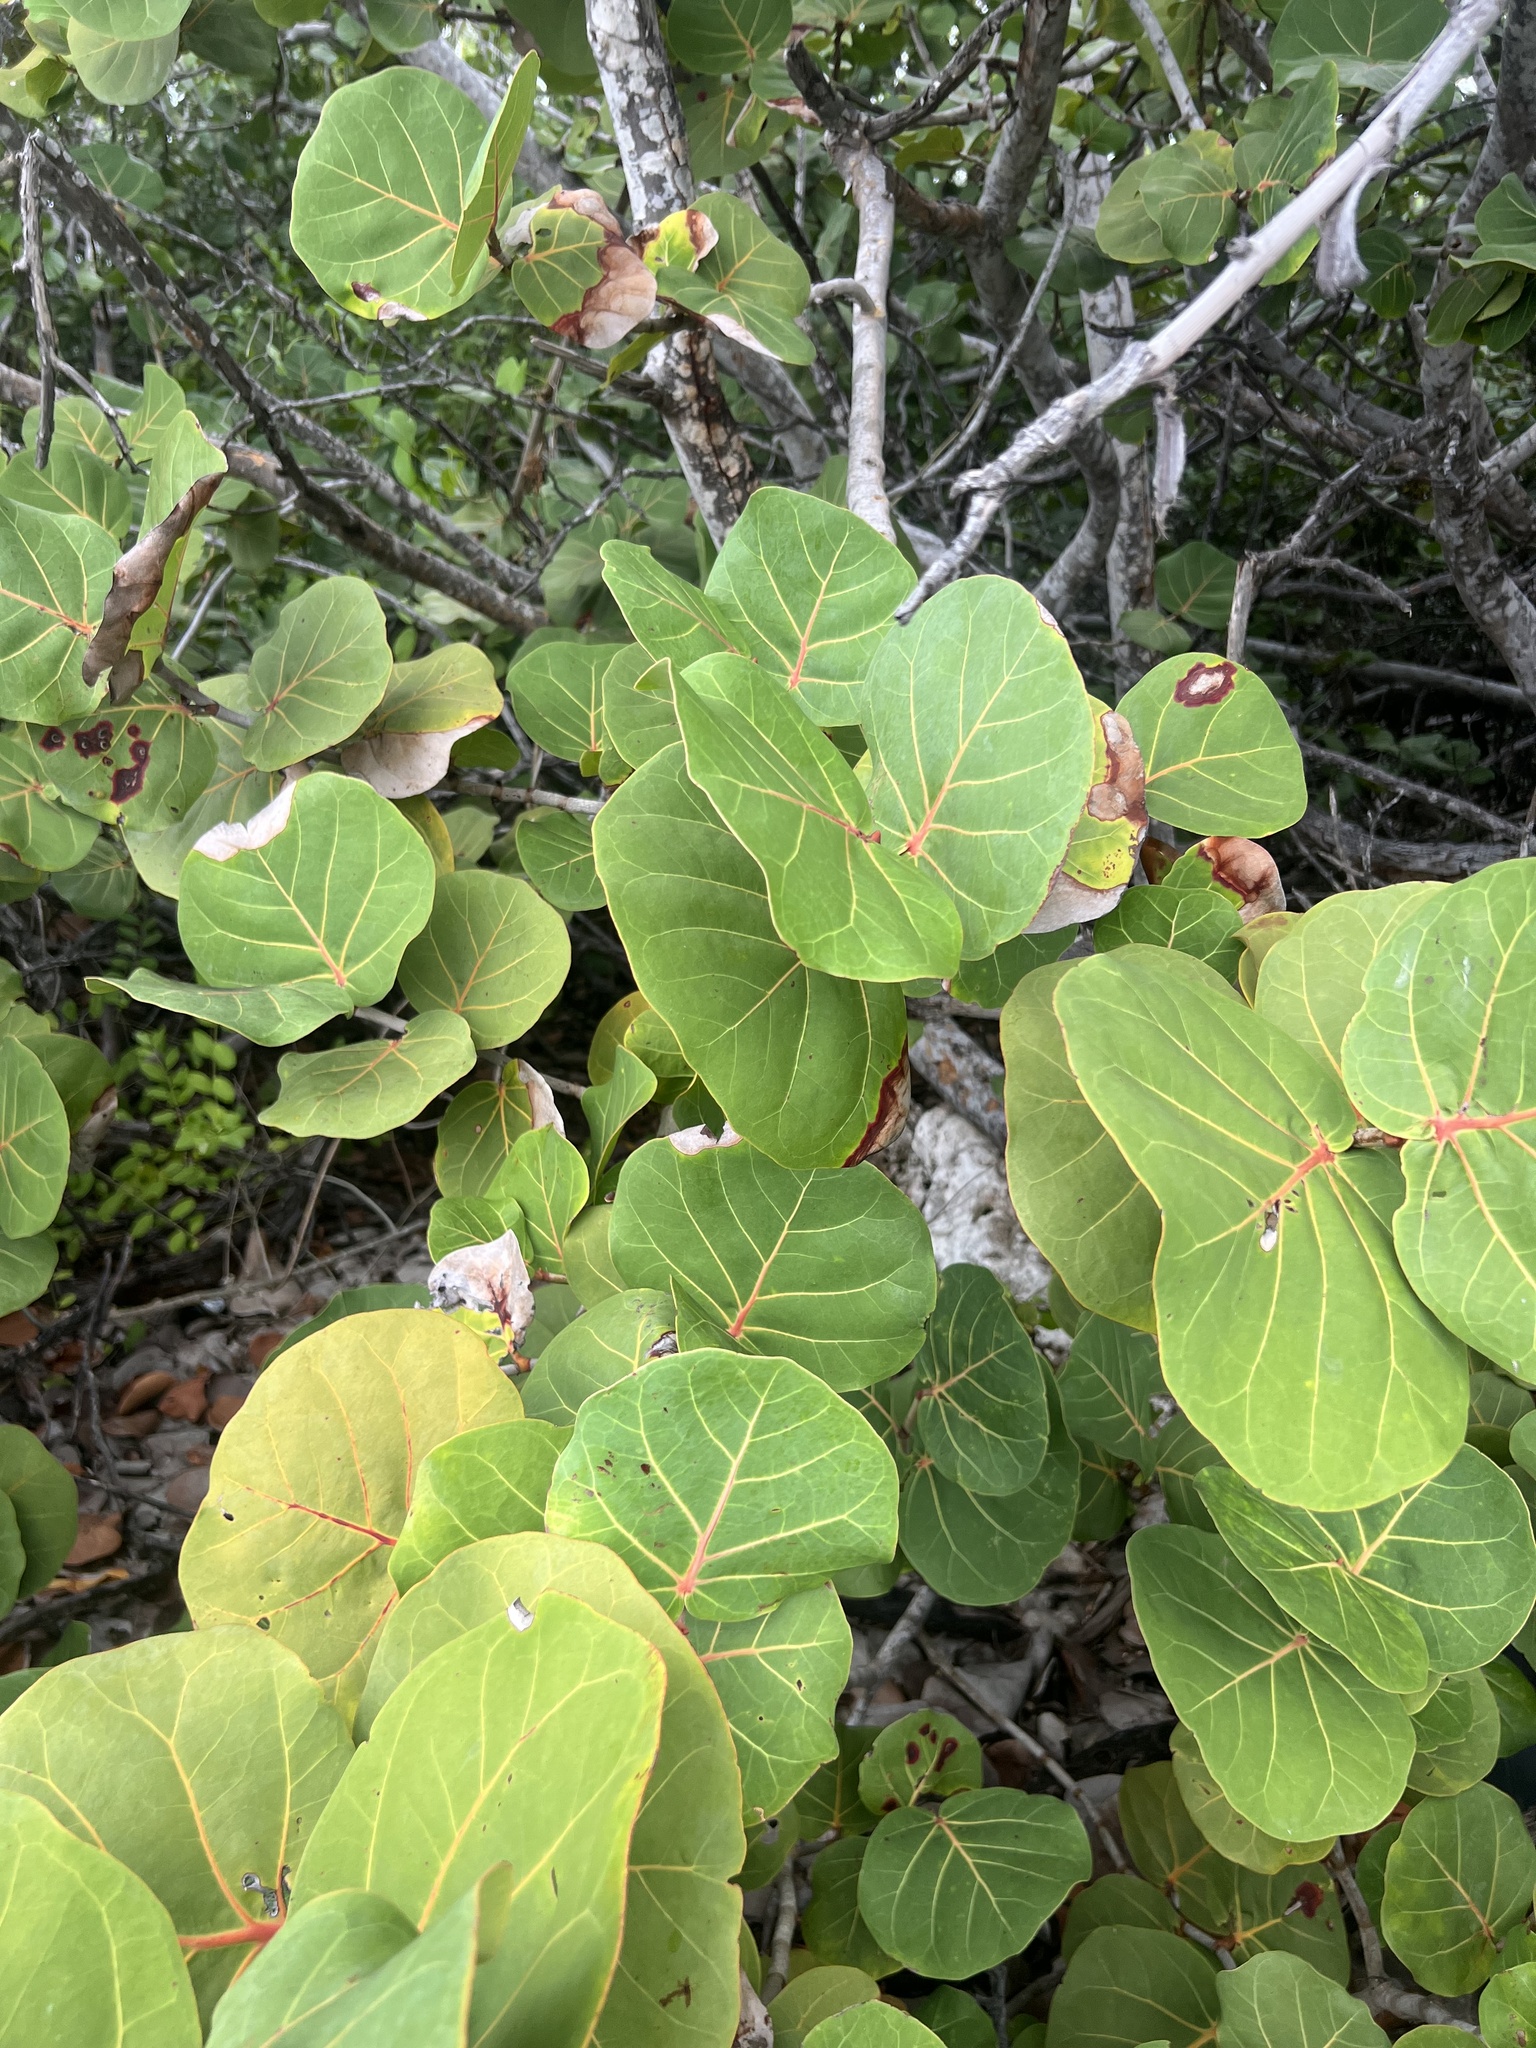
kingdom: Plantae
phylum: Tracheophyta
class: Magnoliopsida
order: Caryophyllales
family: Polygonaceae
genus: Coccoloba
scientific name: Coccoloba uvifera
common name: Seagrape
